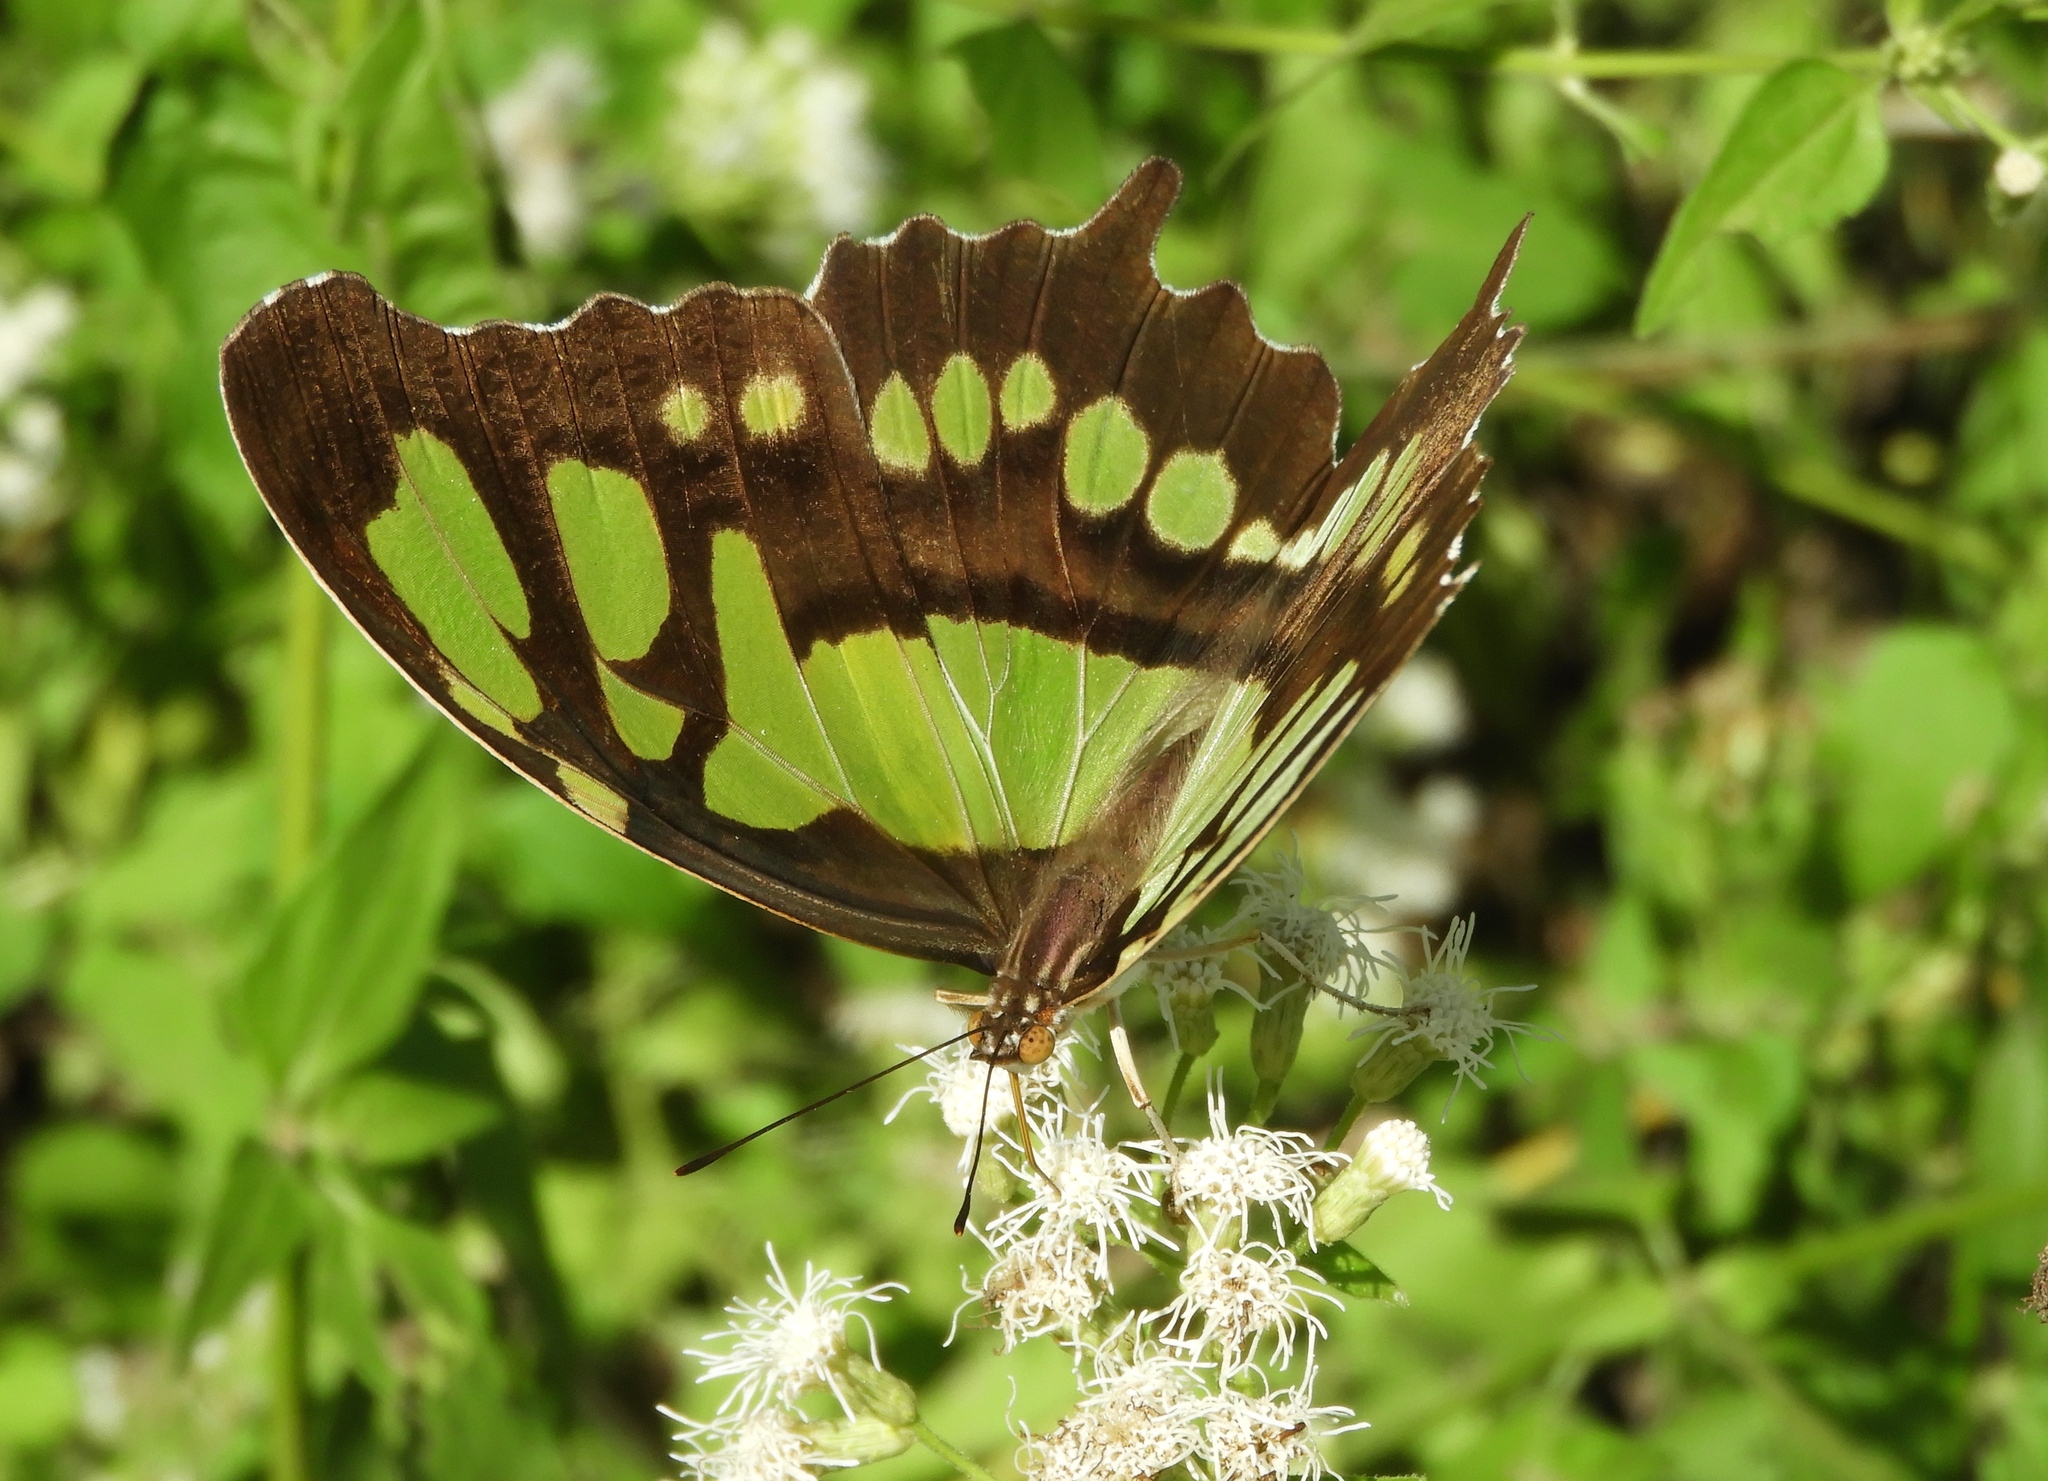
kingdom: Animalia
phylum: Arthropoda
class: Insecta
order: Lepidoptera
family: Nymphalidae
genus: Siproeta
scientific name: Siproeta stelenes
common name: Malachite
